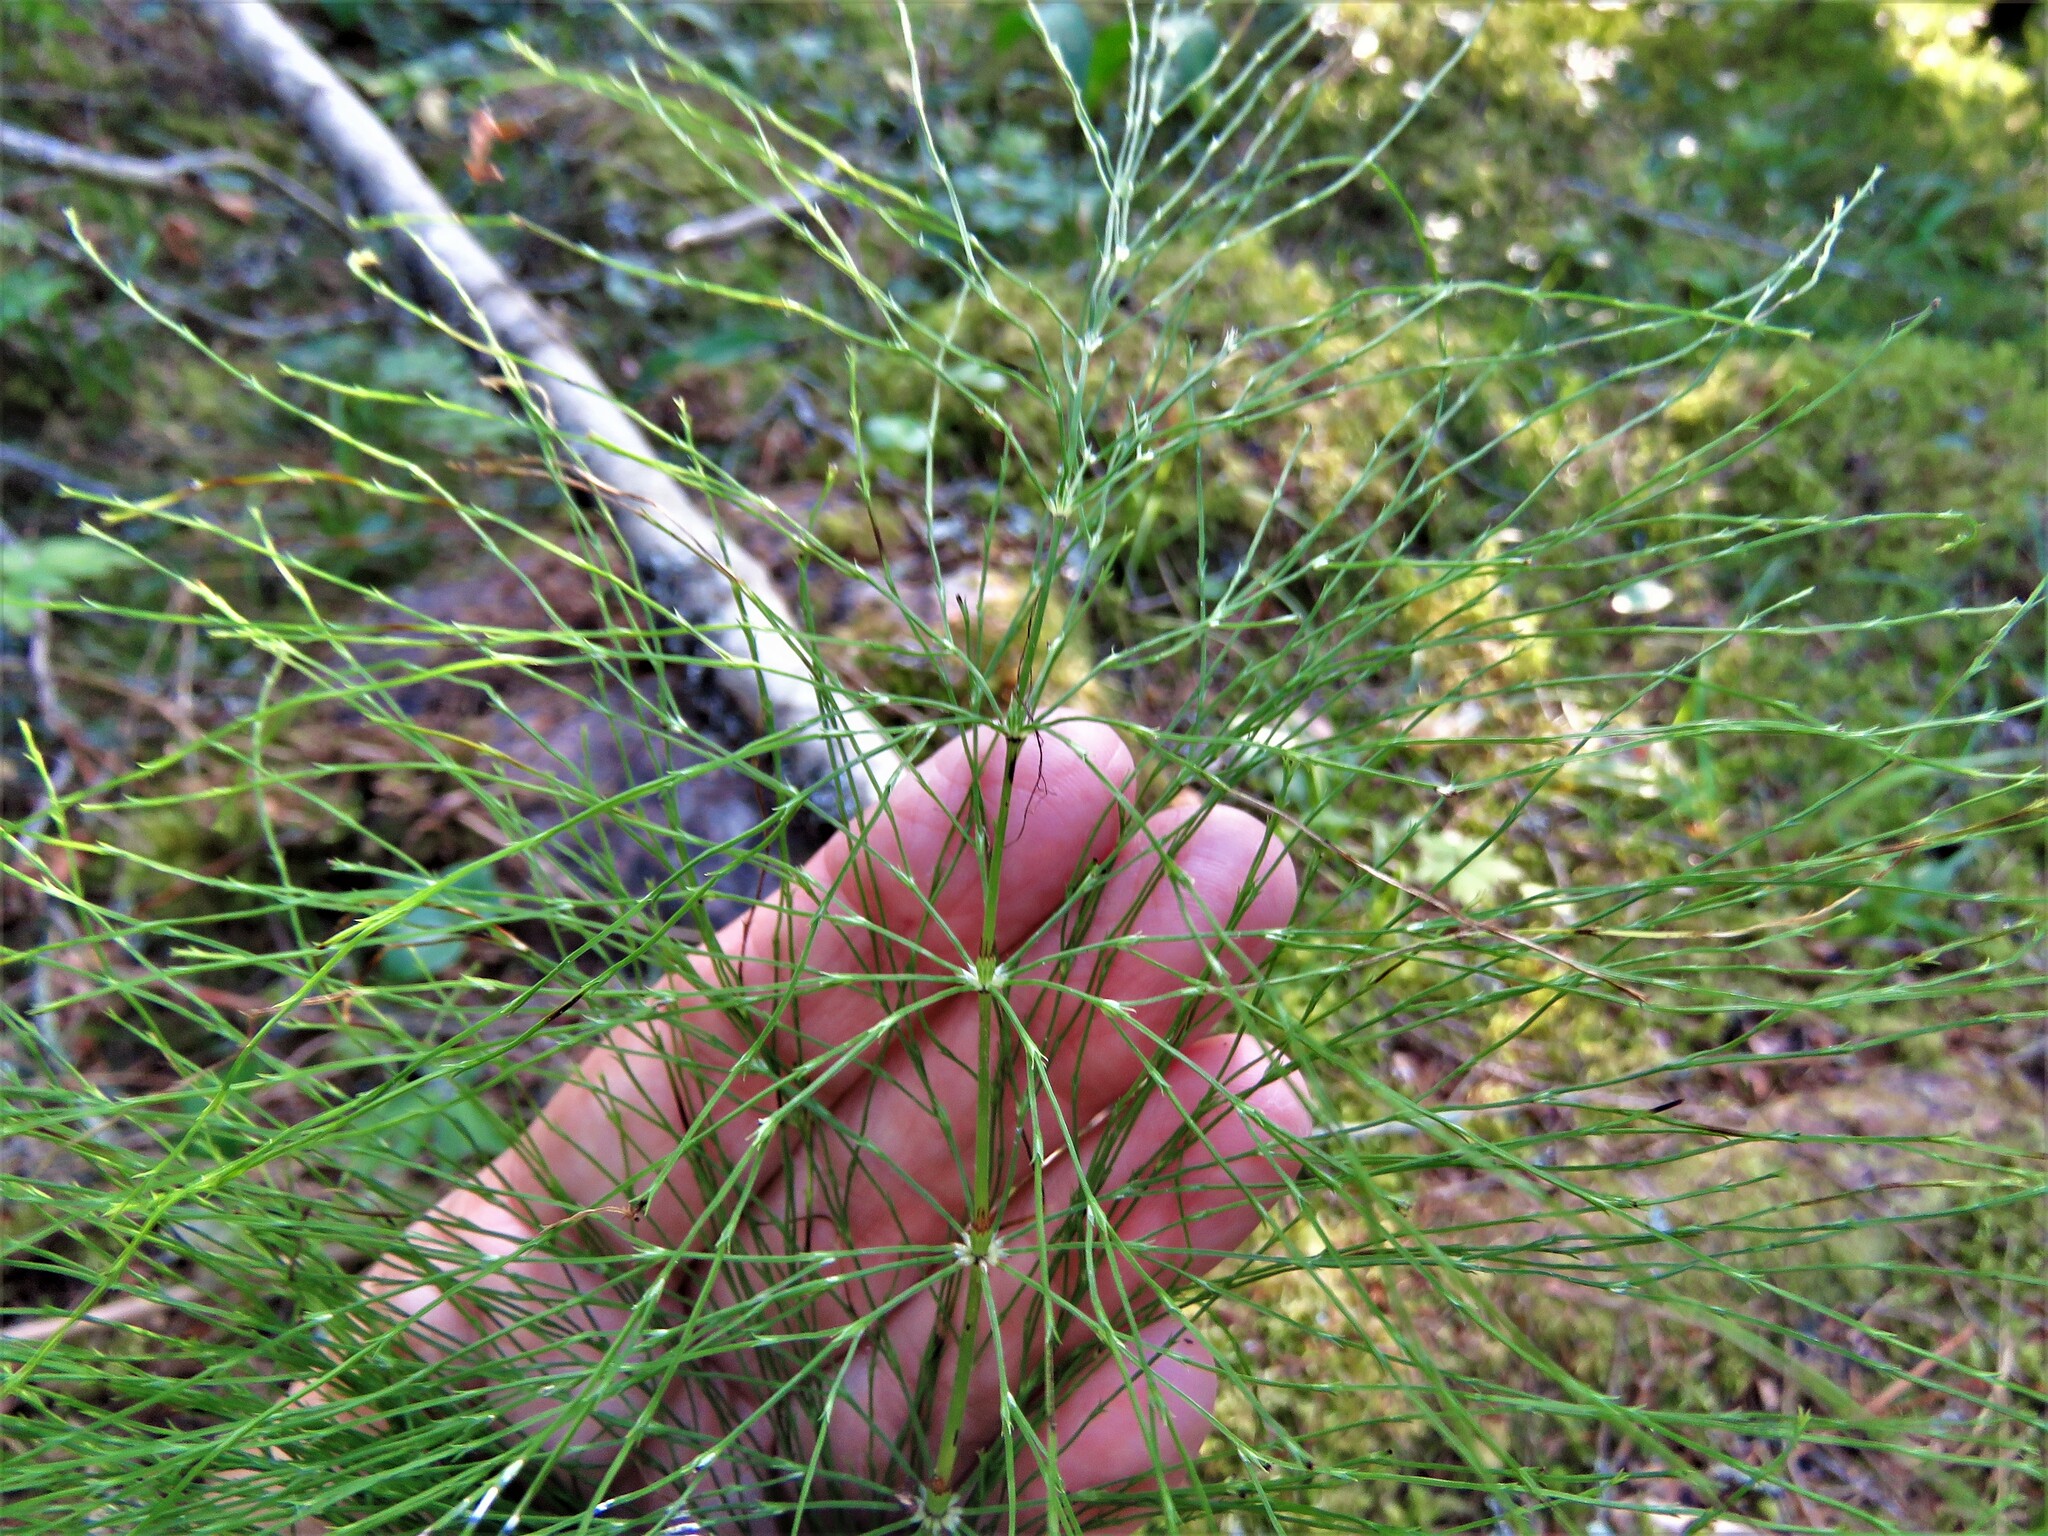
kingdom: Plantae
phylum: Tracheophyta
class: Polypodiopsida
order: Equisetales
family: Equisetaceae
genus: Equisetum
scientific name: Equisetum sylvaticum
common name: Wood horsetail
